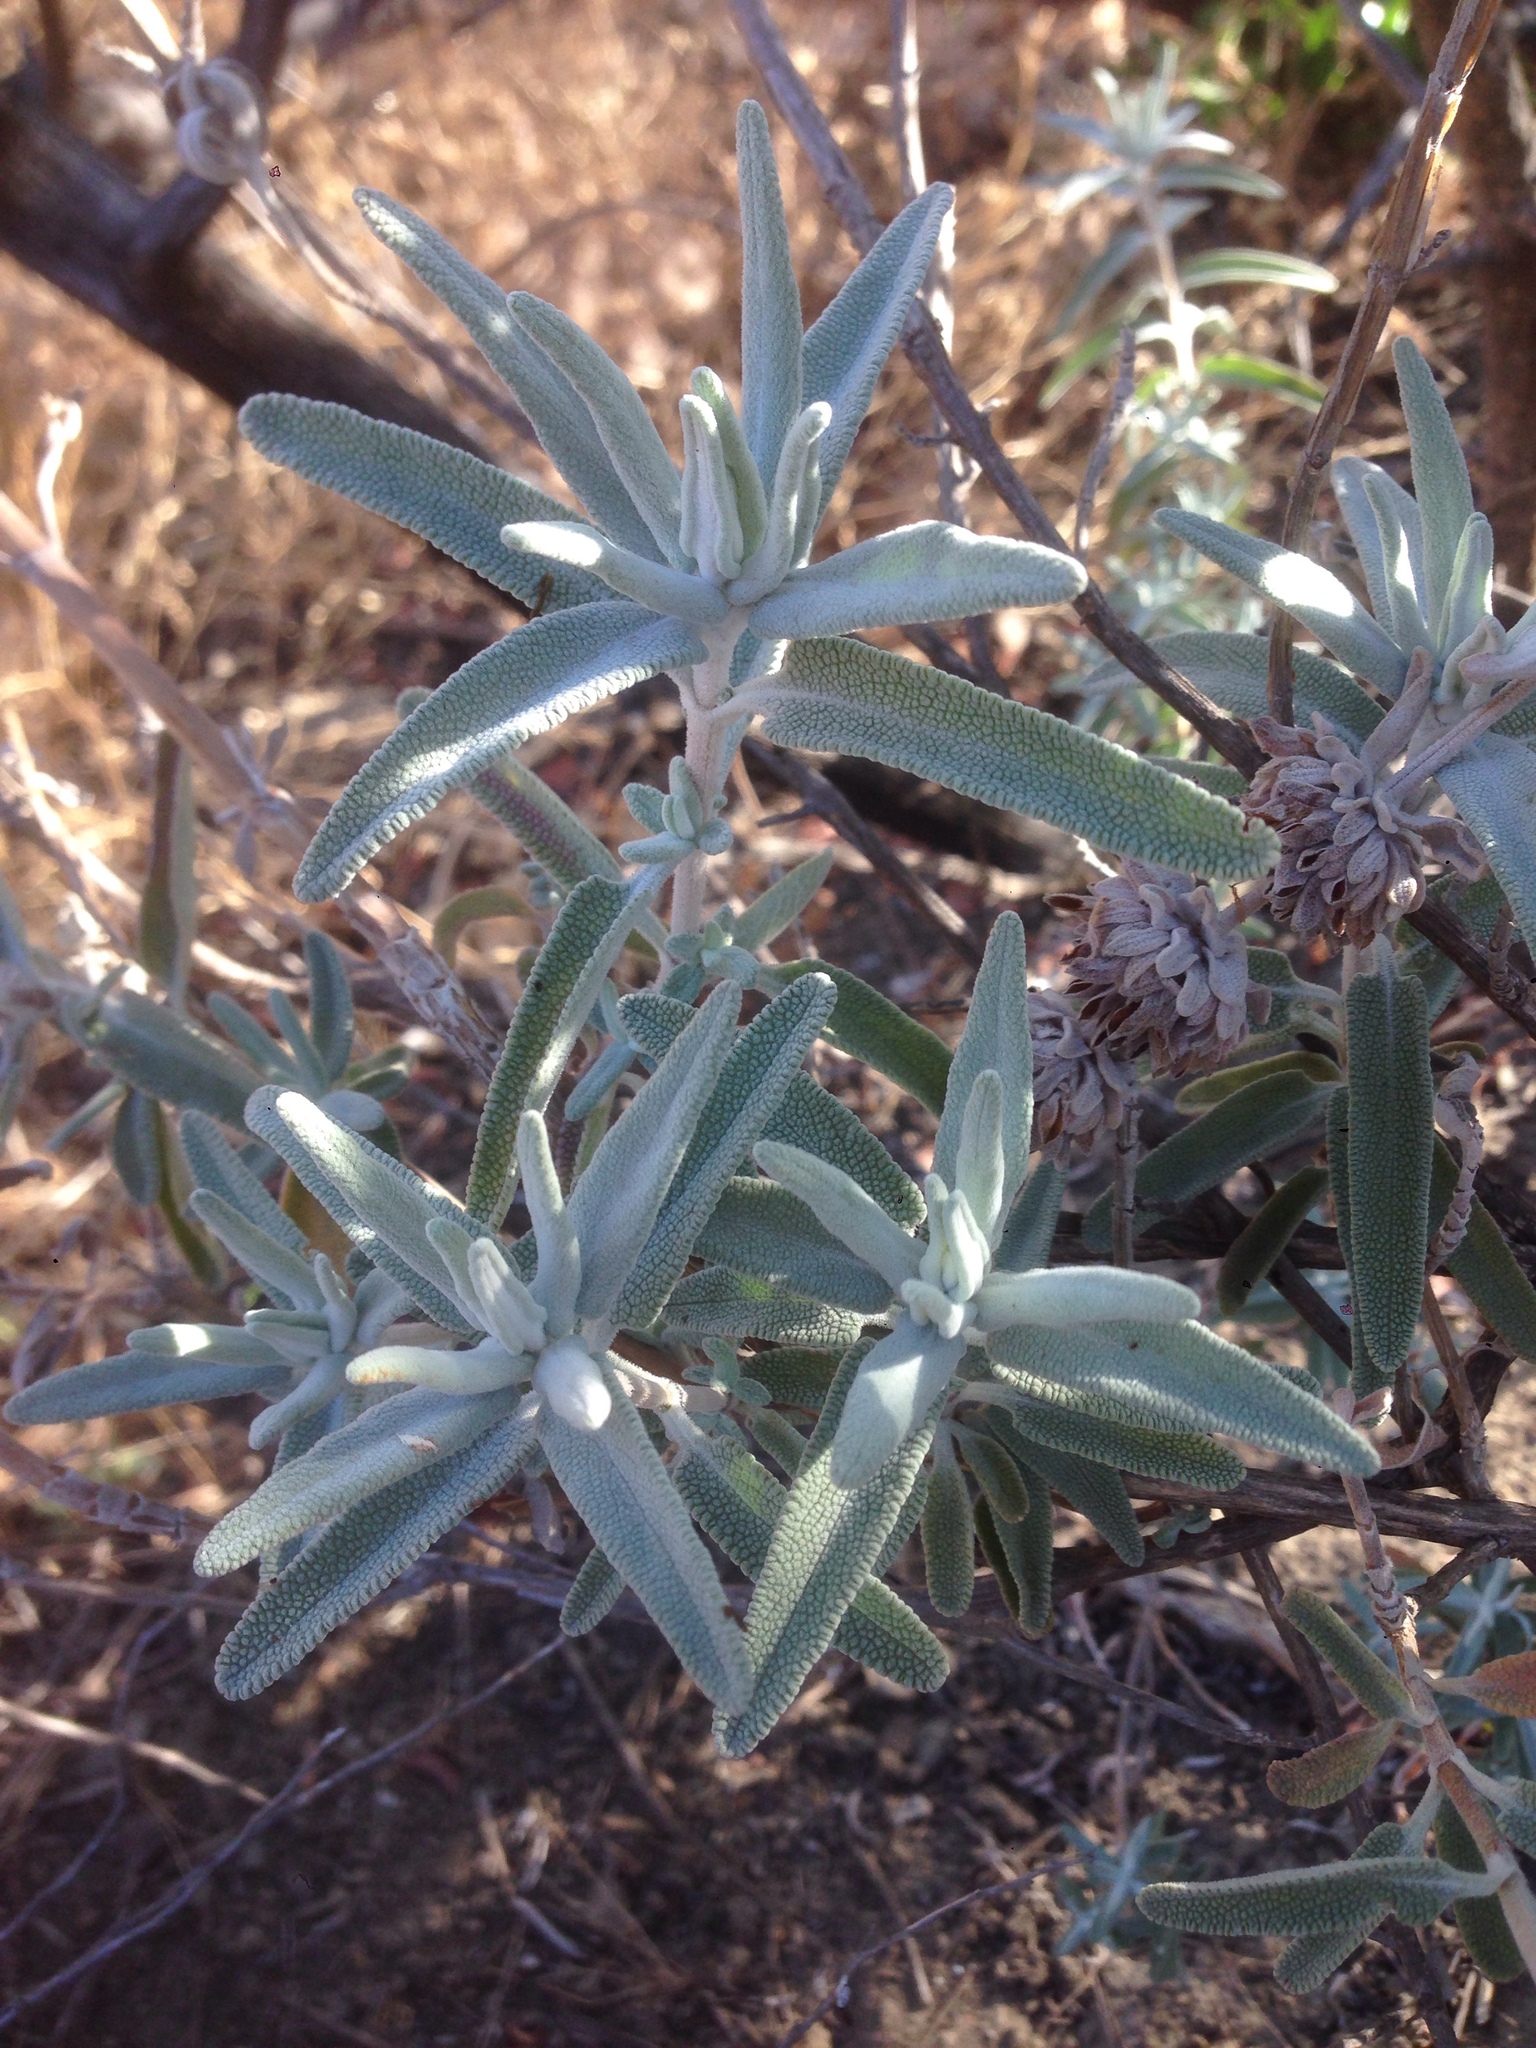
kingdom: Plantae
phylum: Tracheophyta
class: Magnoliopsida
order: Lamiales
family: Lamiaceae
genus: Salvia
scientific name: Salvia leucophylla
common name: Purple sage
